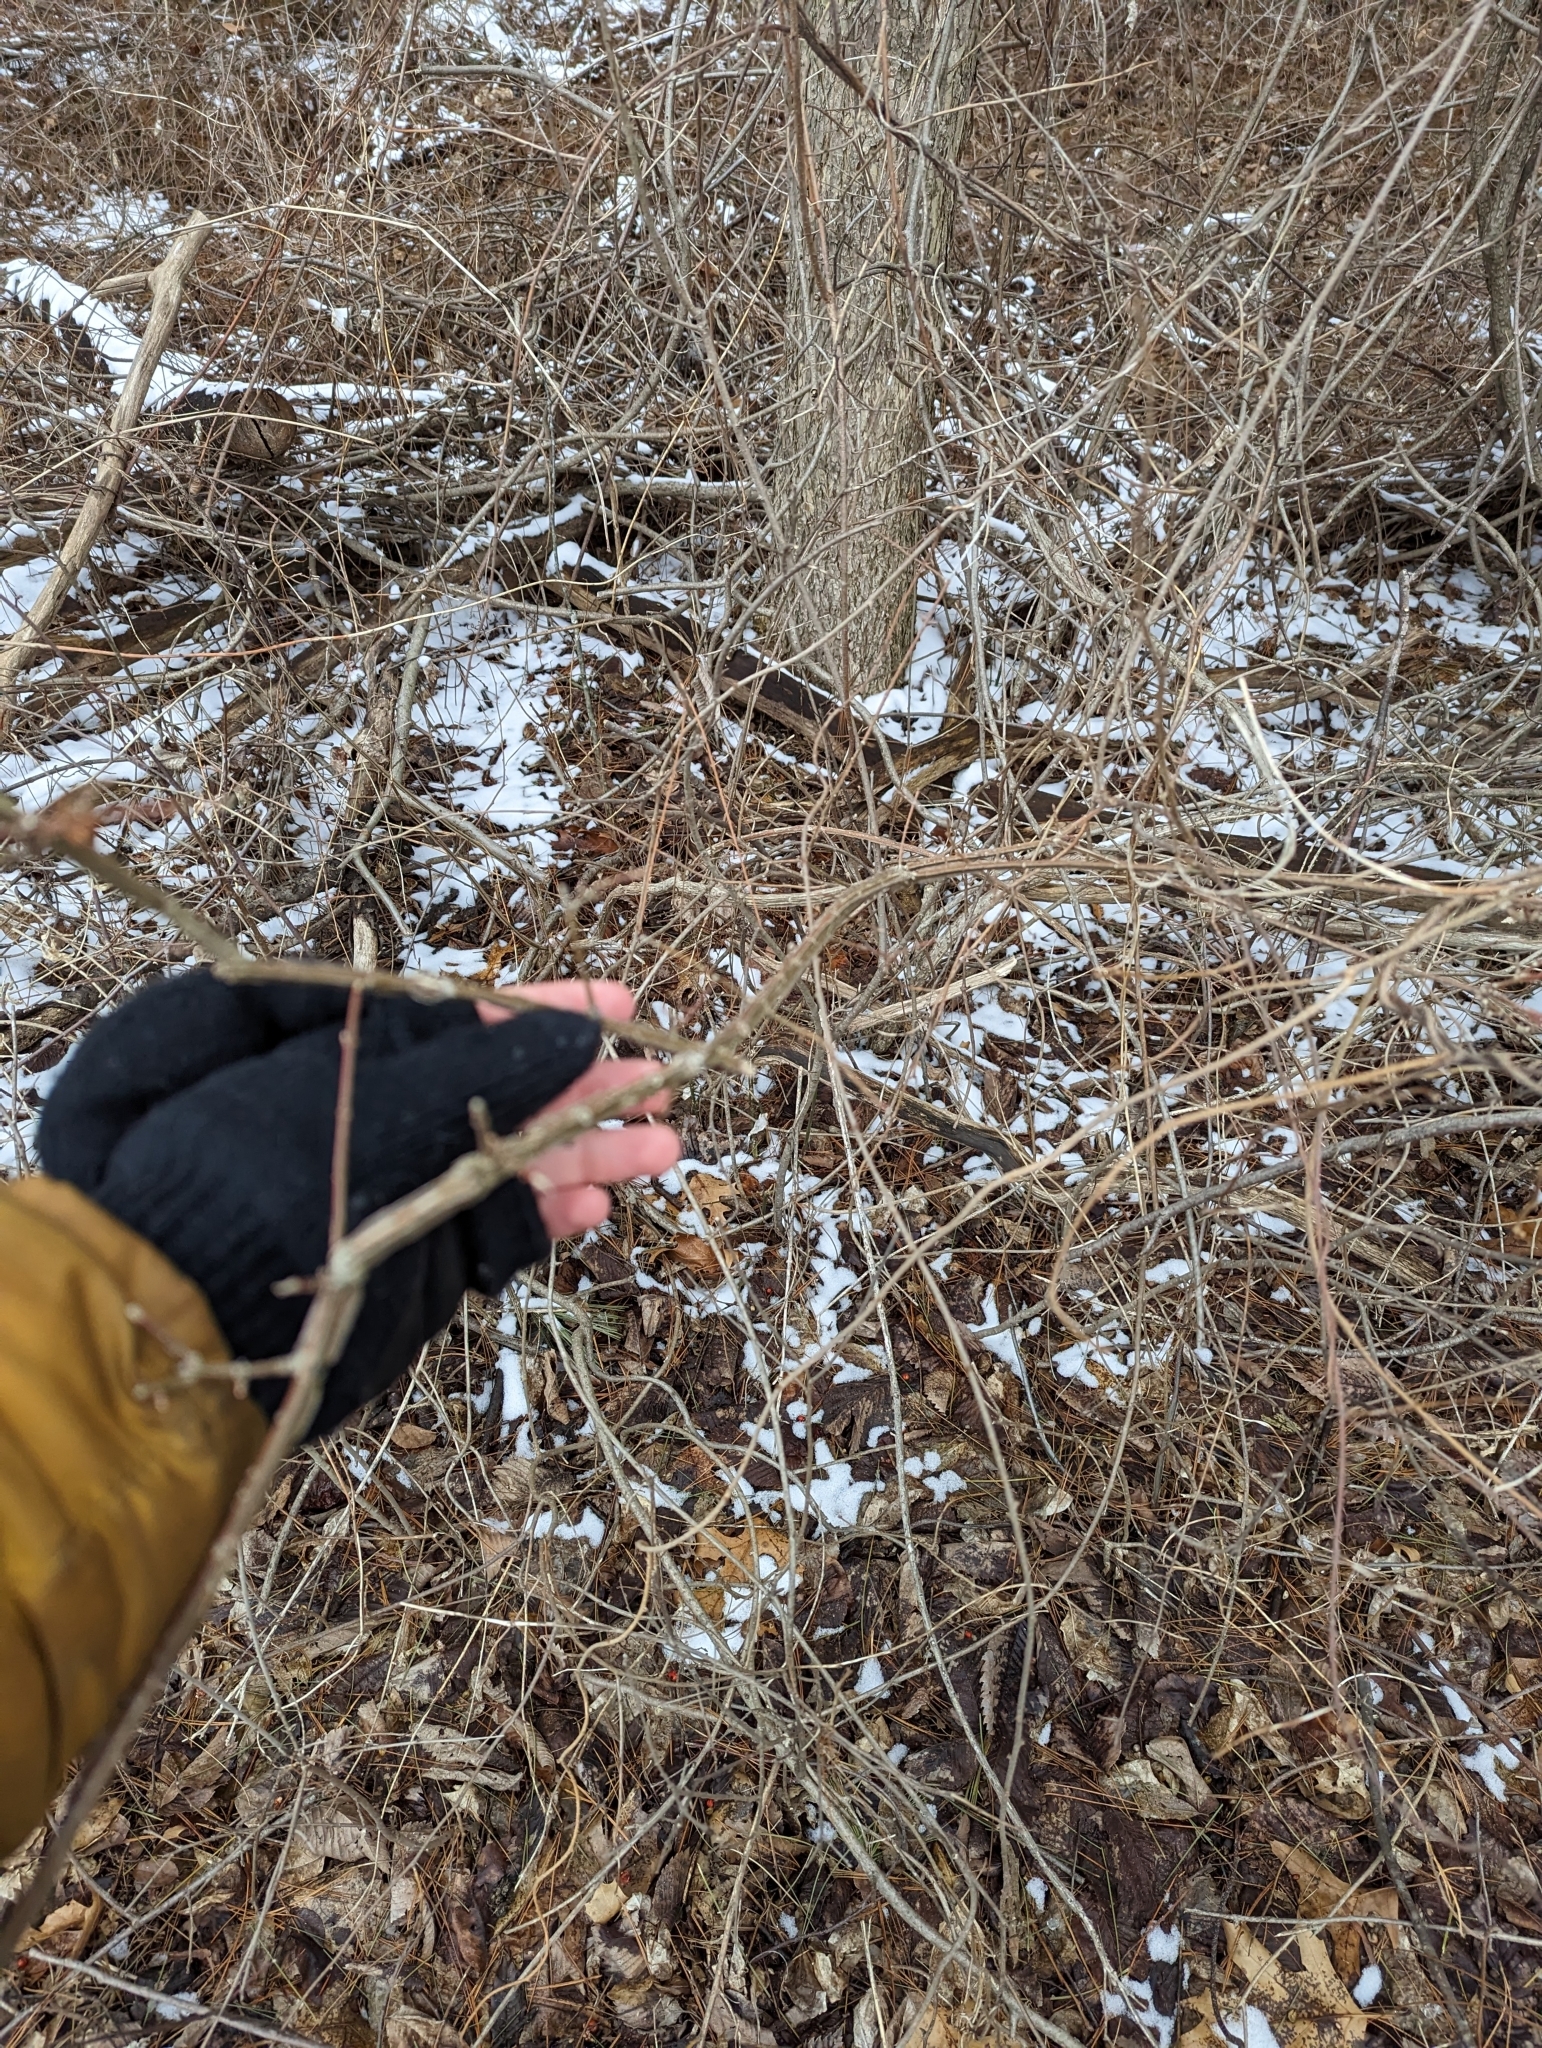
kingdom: Plantae
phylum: Tracheophyta
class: Magnoliopsida
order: Celastrales
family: Celastraceae
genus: Euonymus
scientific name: Euonymus alatus
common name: Winged euonymus
